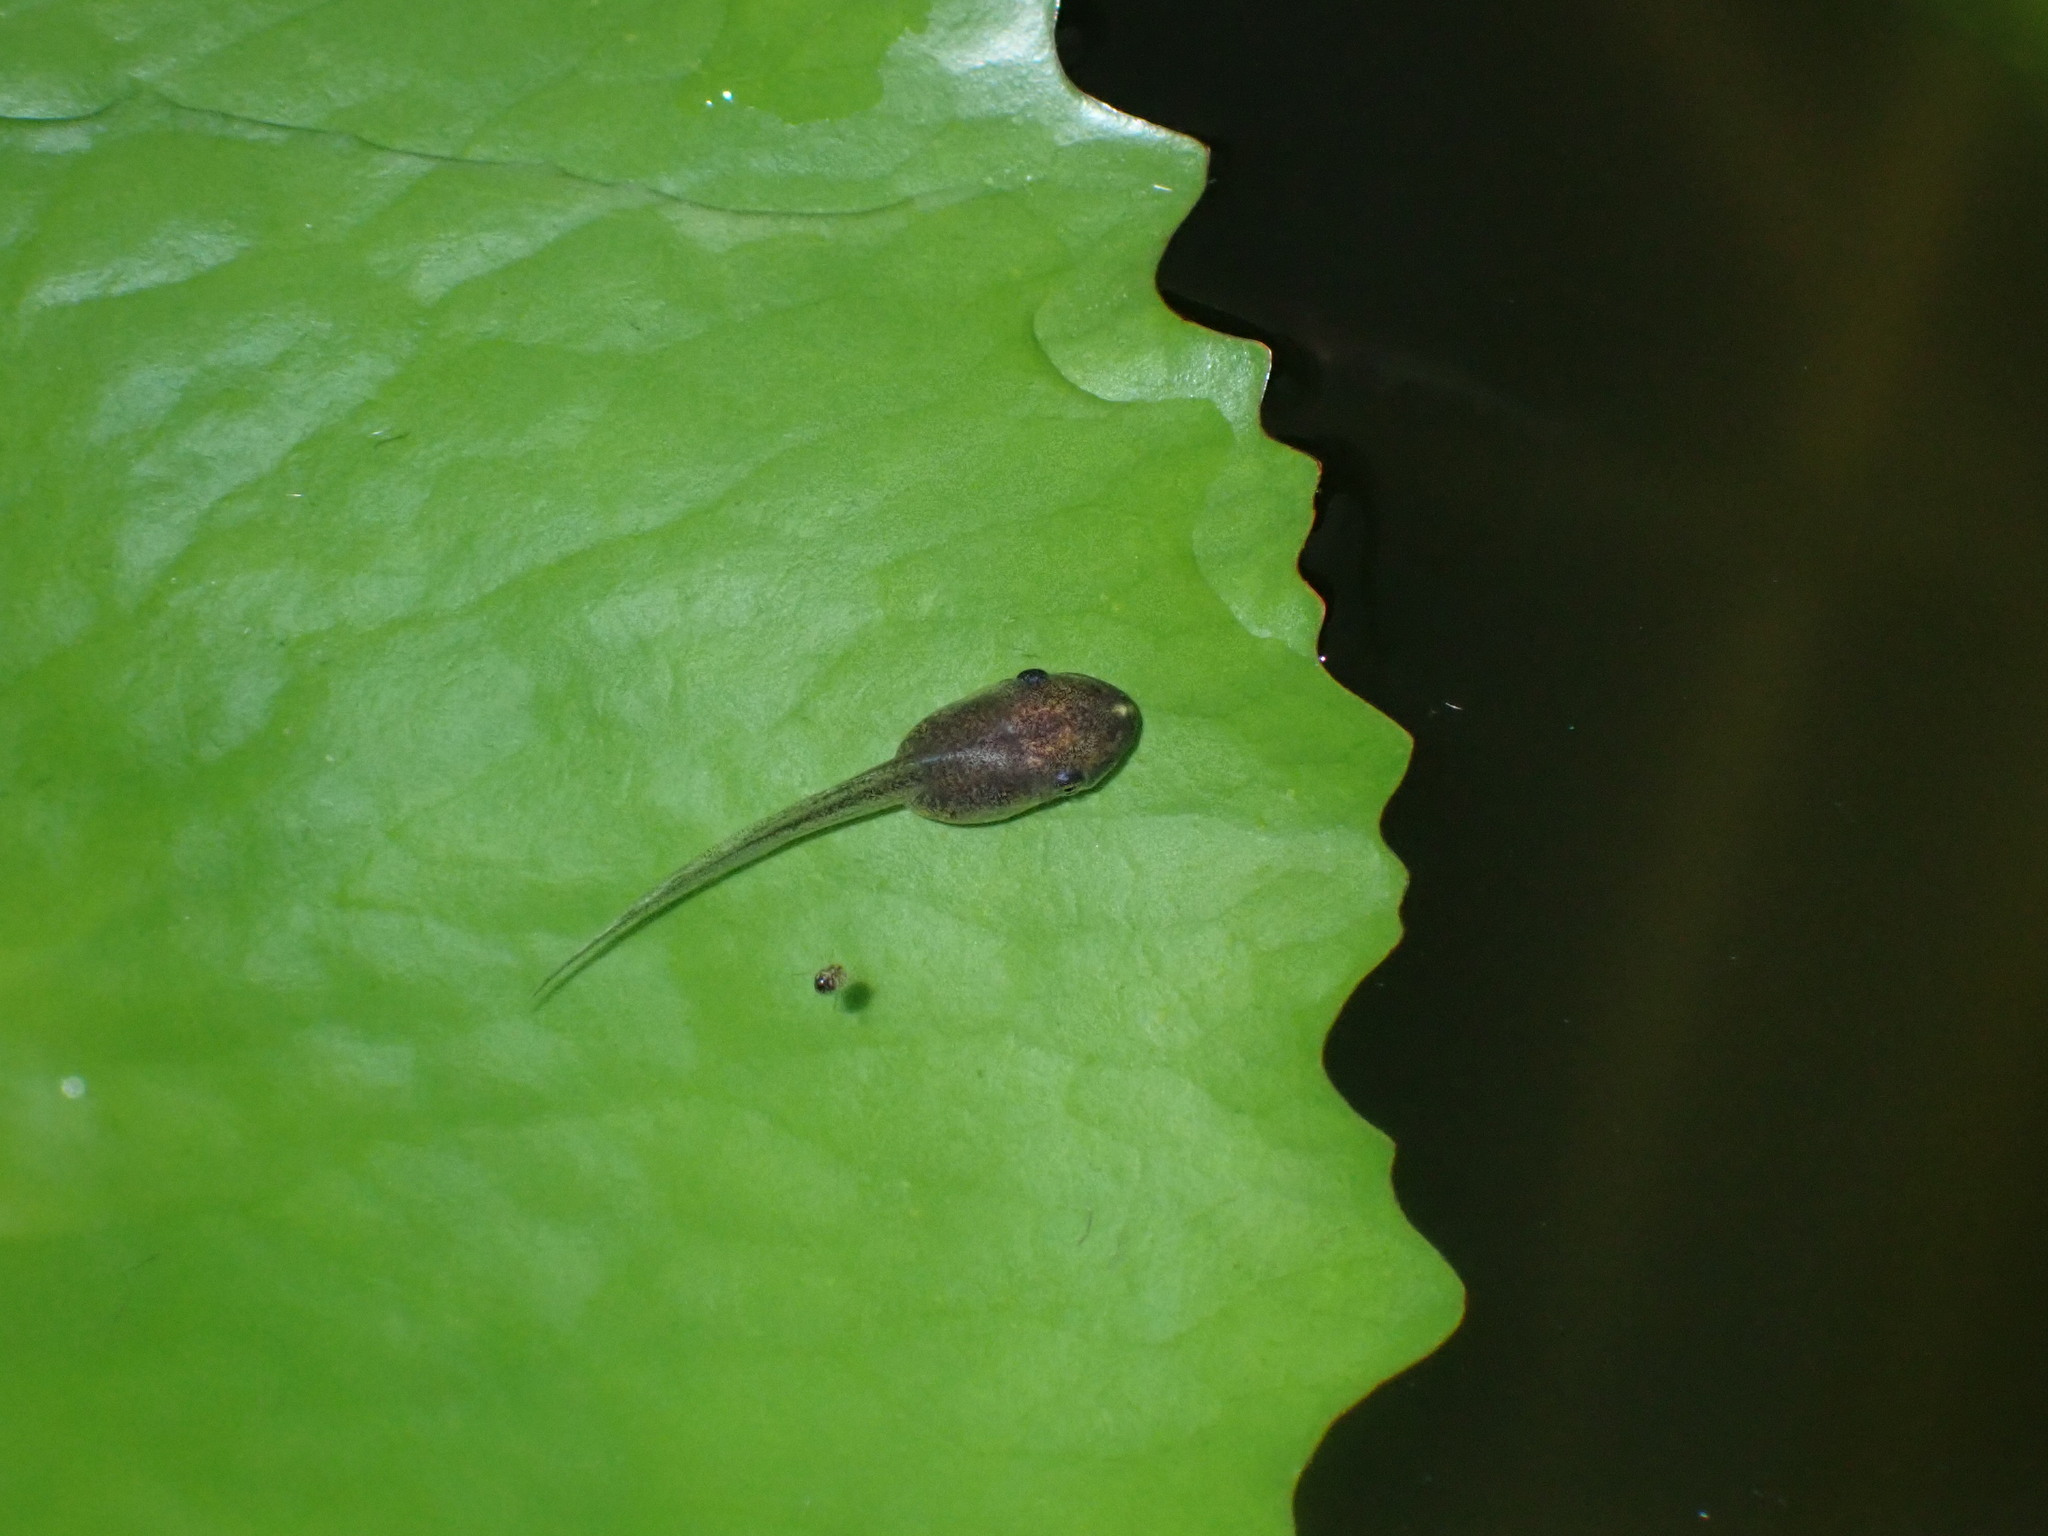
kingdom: Animalia
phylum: Chordata
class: Amphibia
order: Anura
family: Rhacophoridae
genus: Polypedates
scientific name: Polypedates megacephalus
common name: Hong kong whipping frog
